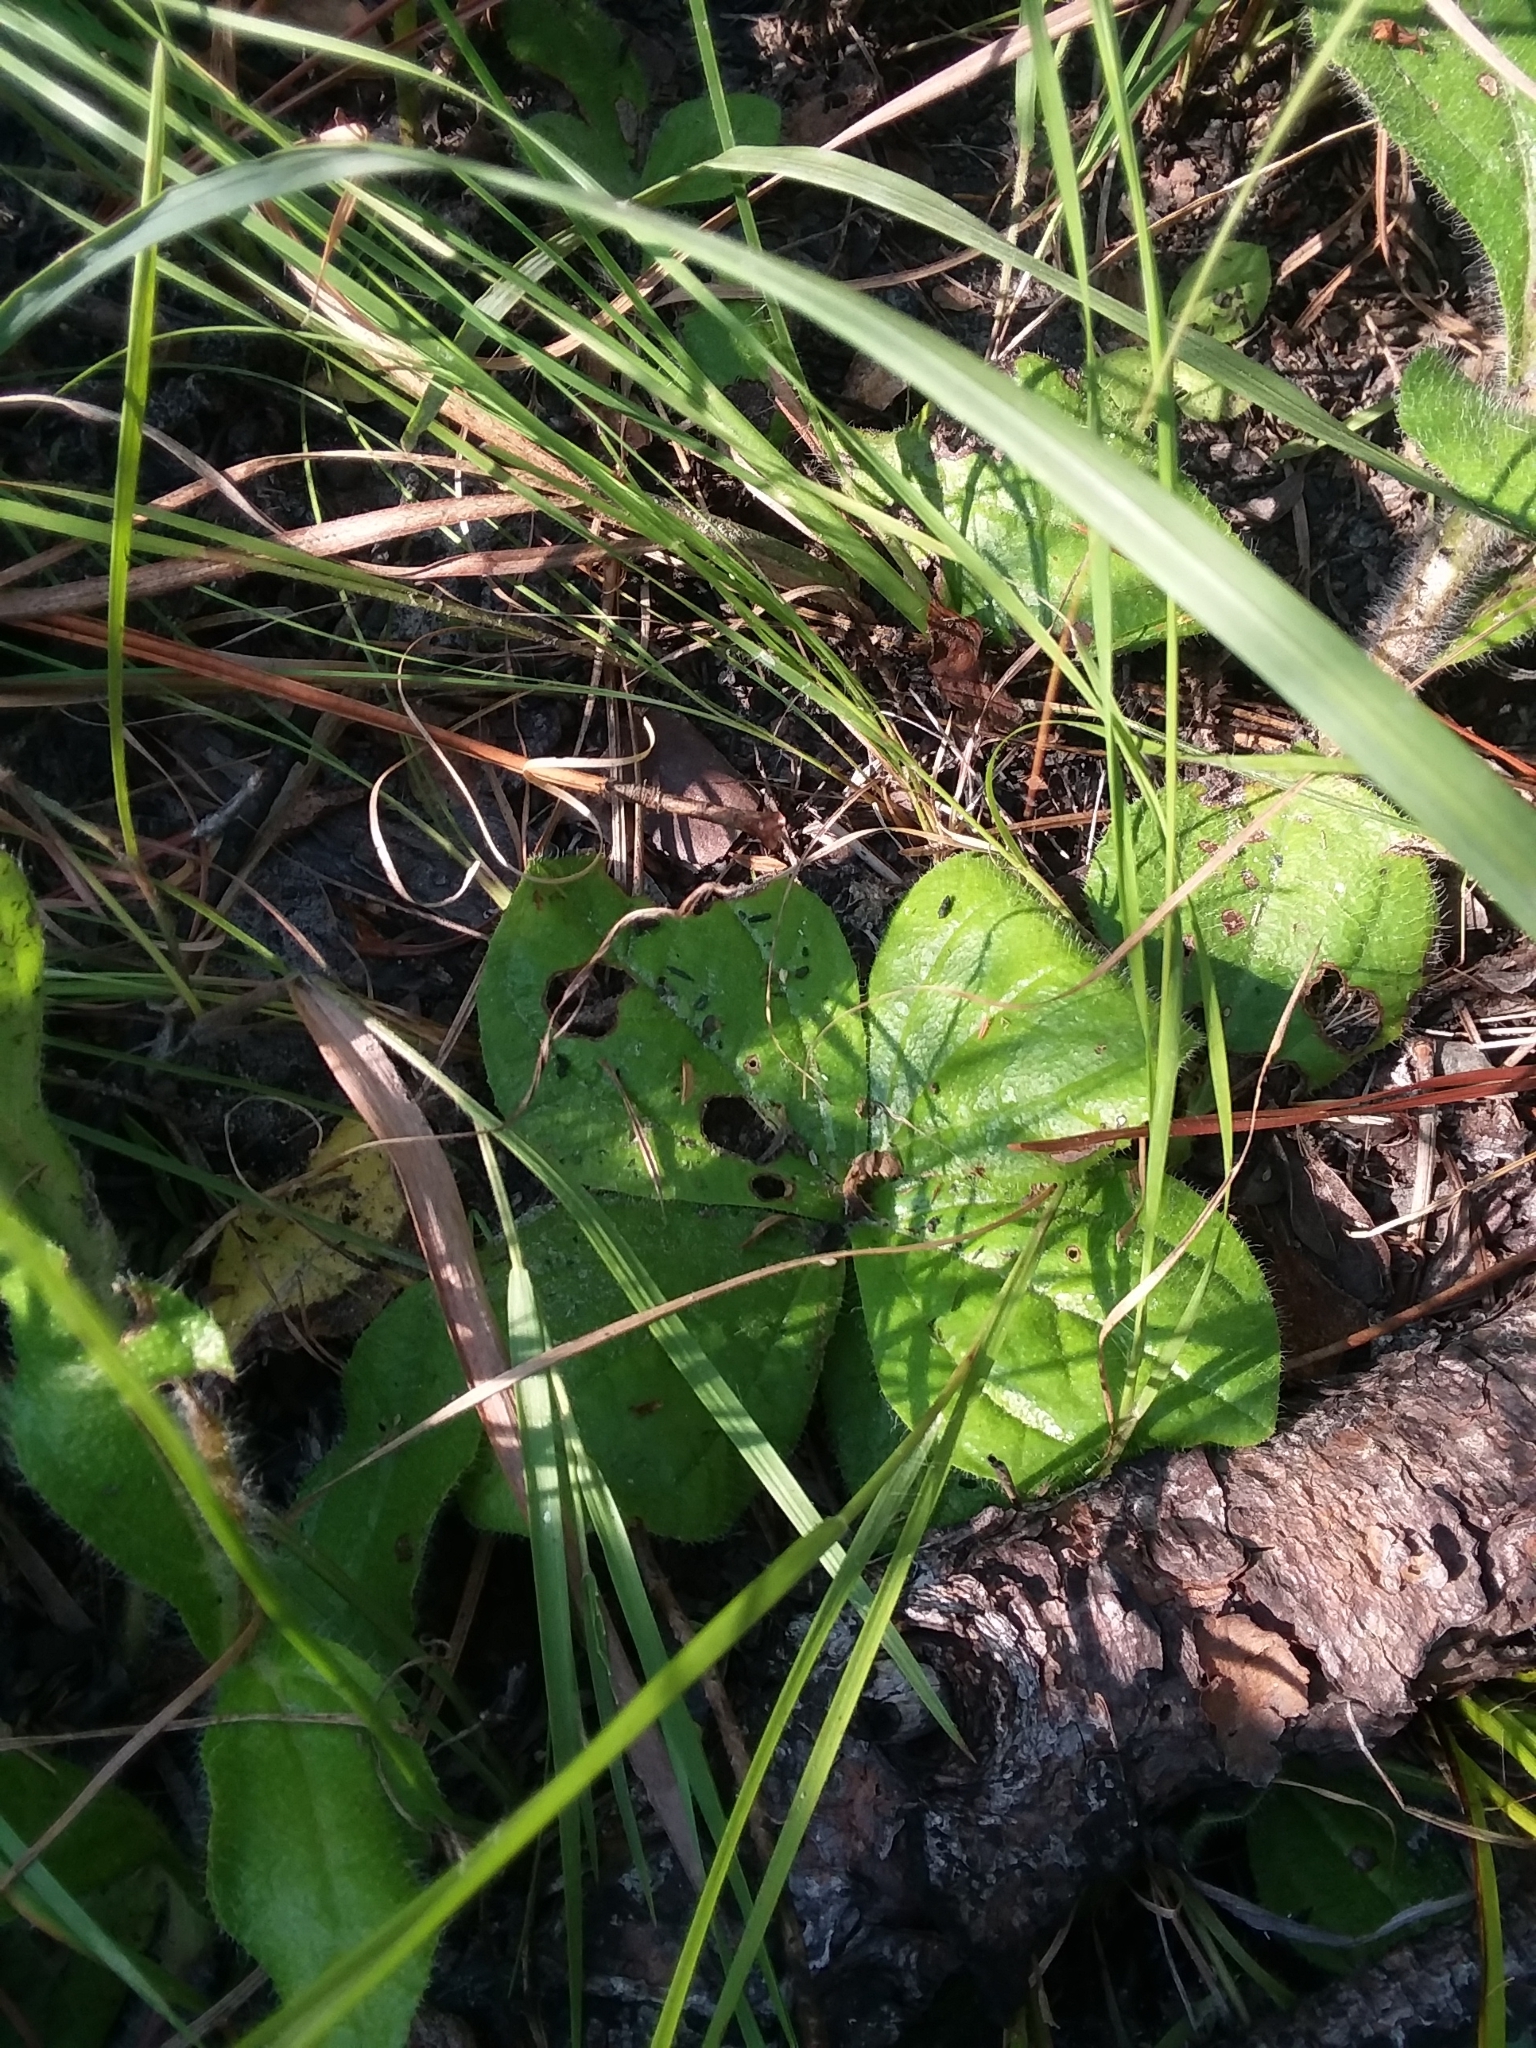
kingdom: Plantae
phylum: Tracheophyta
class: Magnoliopsida
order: Asterales
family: Asteraceae
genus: Helianthus
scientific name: Helianthus radula
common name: Pineland sunflower
